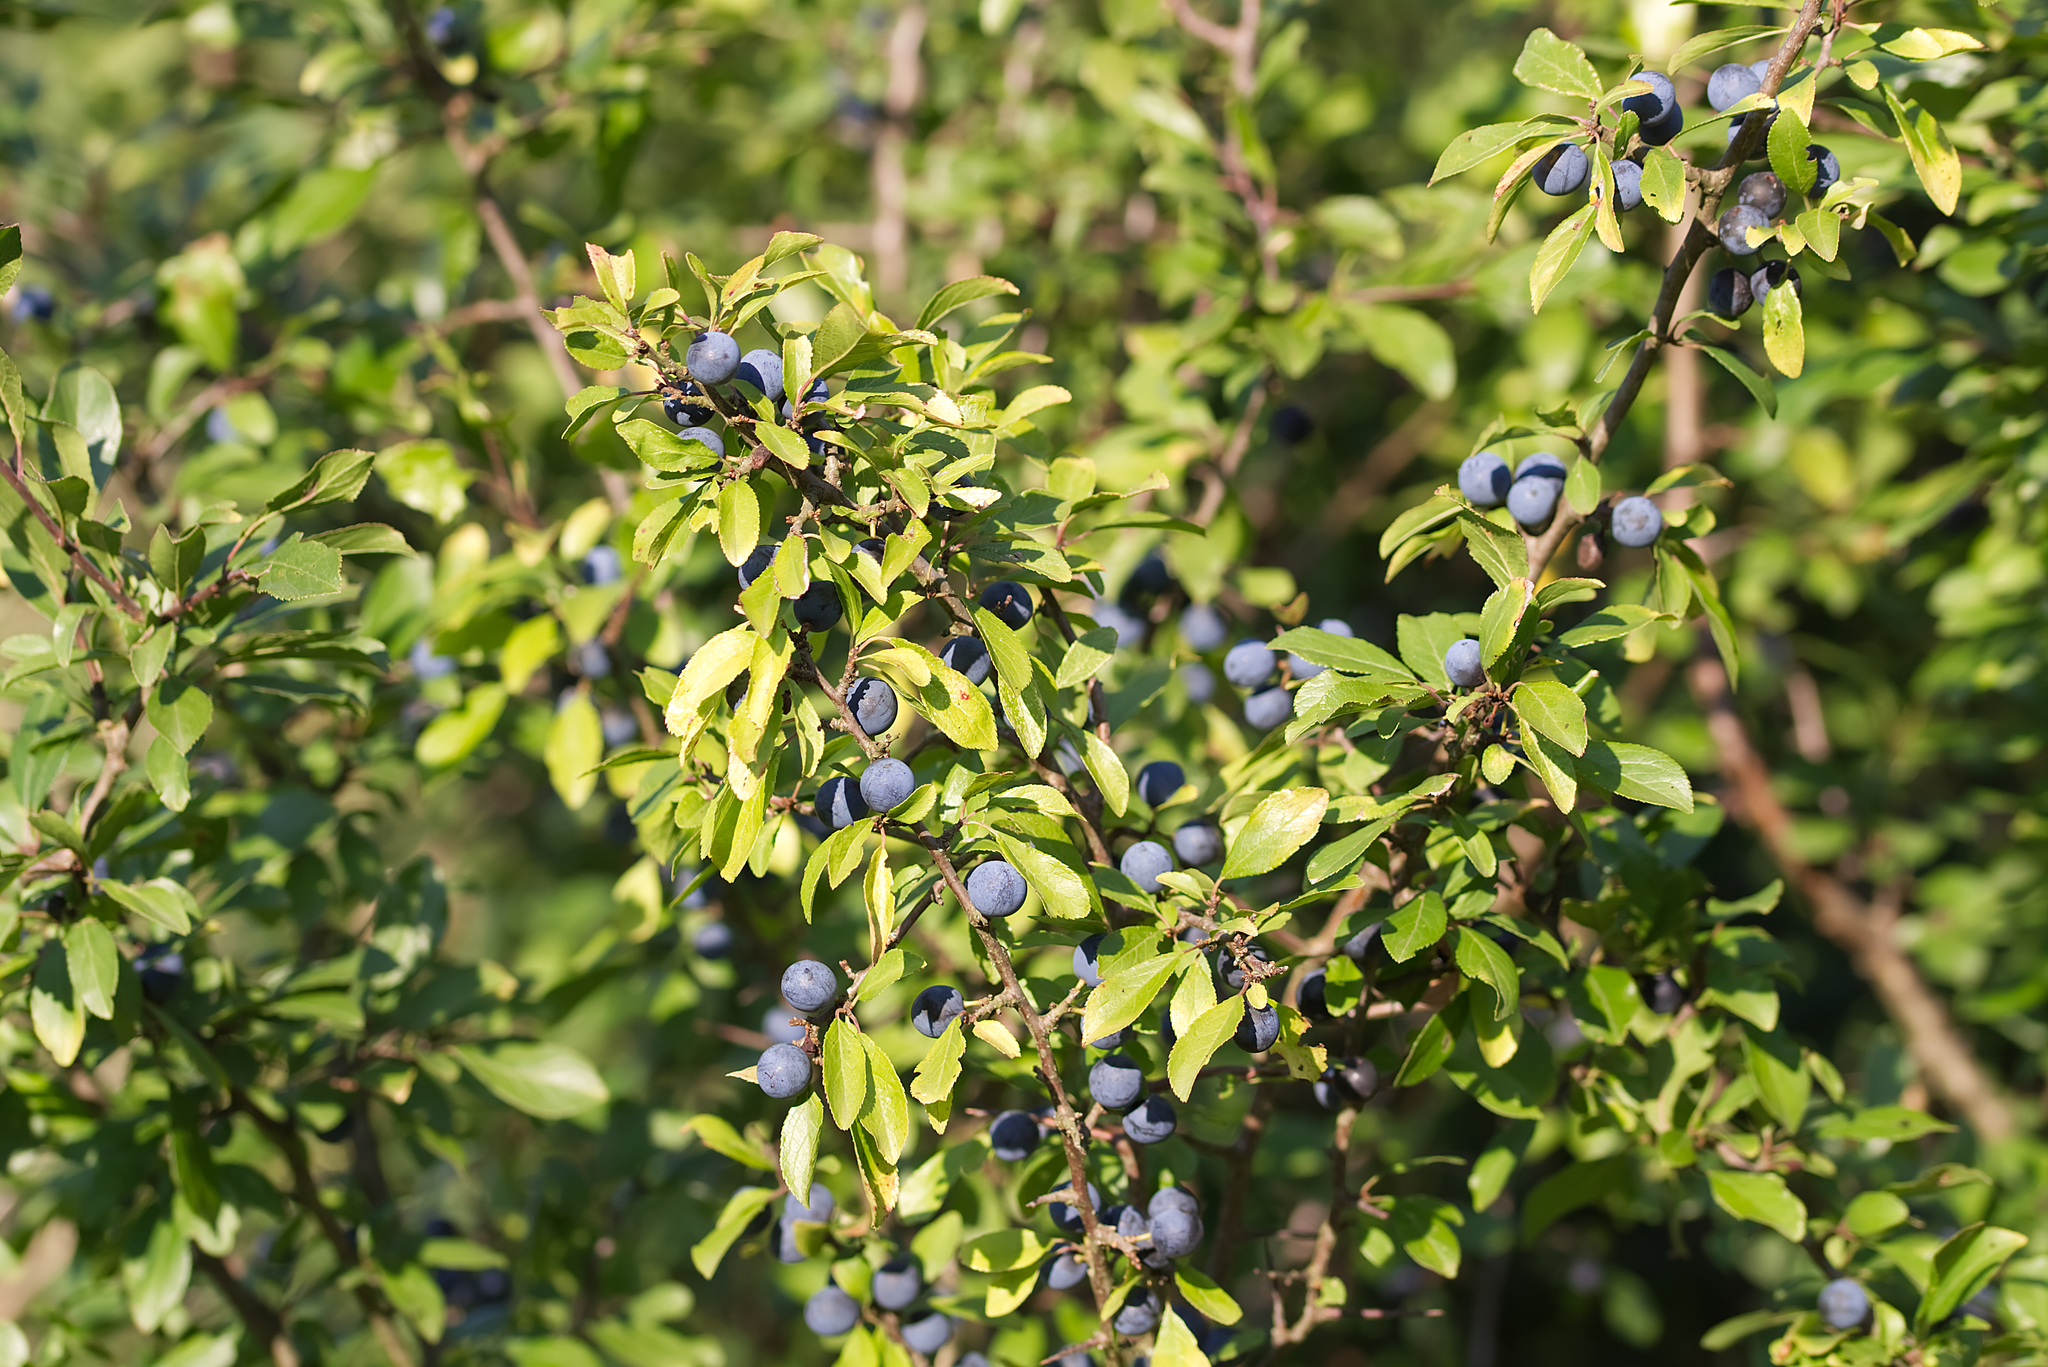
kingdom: Plantae
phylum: Tracheophyta
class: Magnoliopsida
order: Rosales
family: Rosaceae
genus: Prunus
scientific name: Prunus spinosa
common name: Blackthorn
